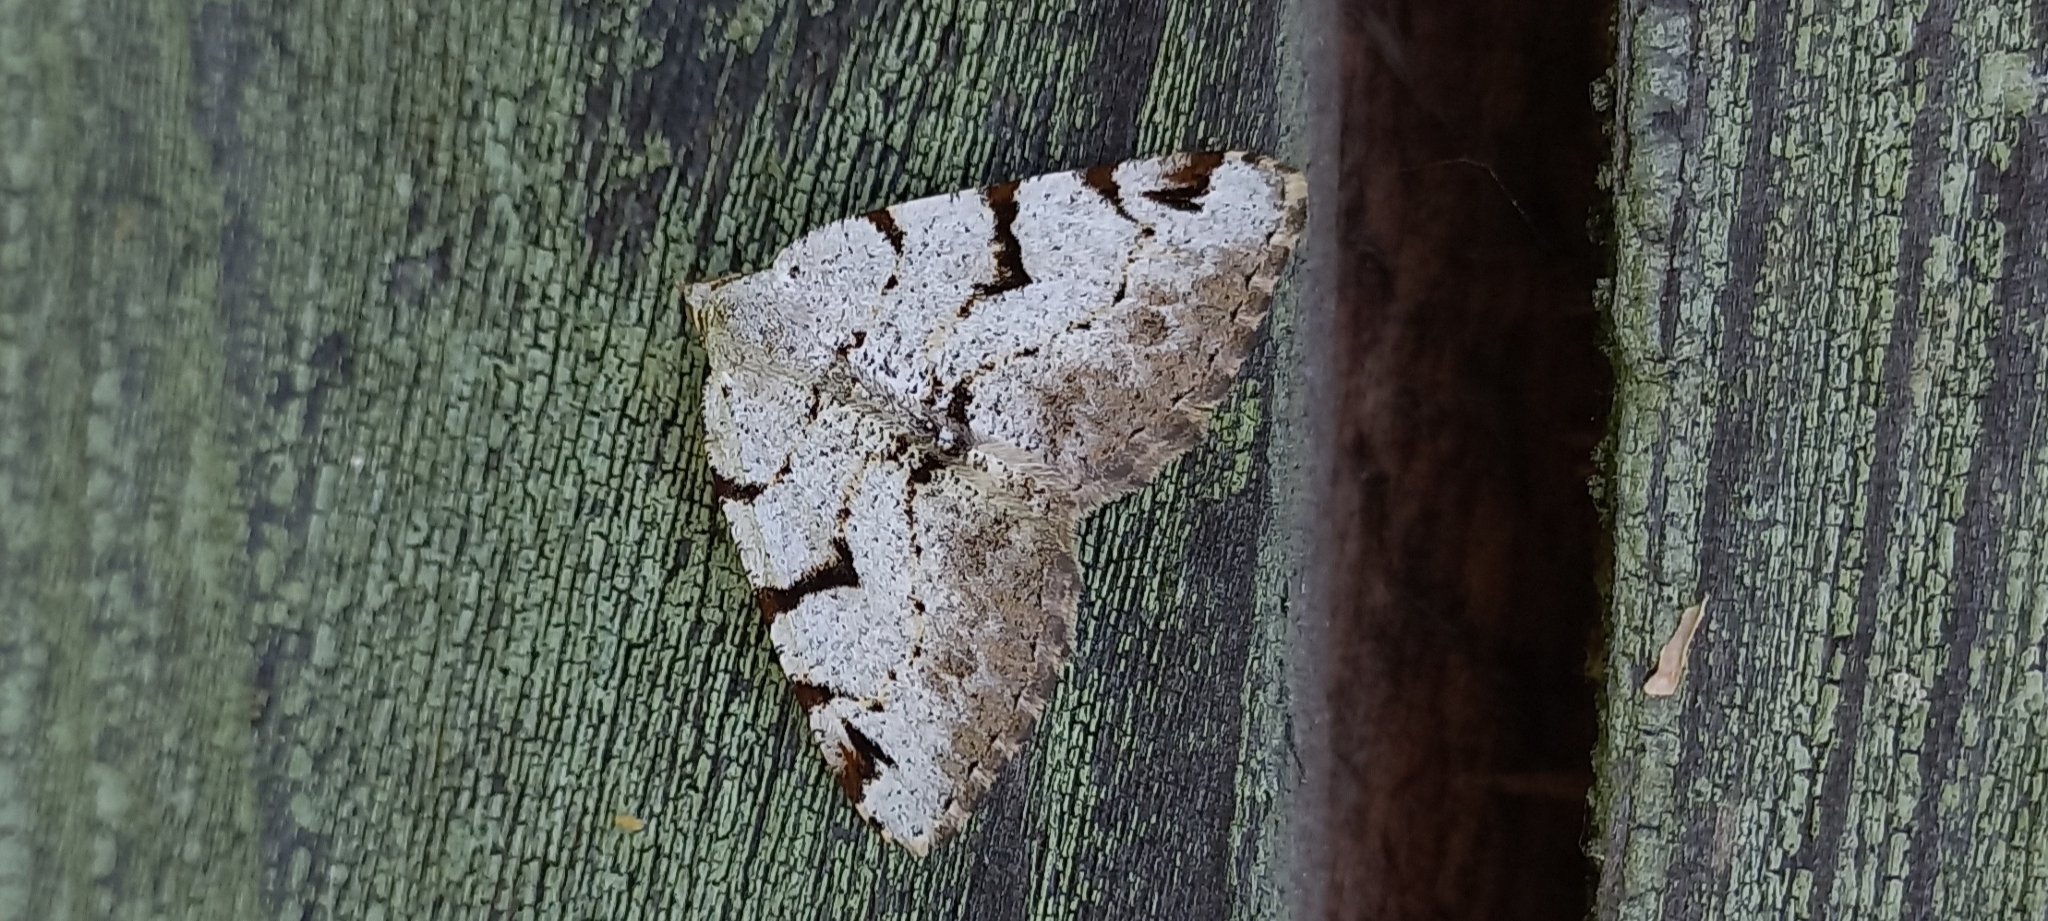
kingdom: Animalia
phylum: Arthropoda
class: Insecta
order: Lepidoptera
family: Geometridae
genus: Macaria
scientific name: Macaria wauaria
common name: V-moth
